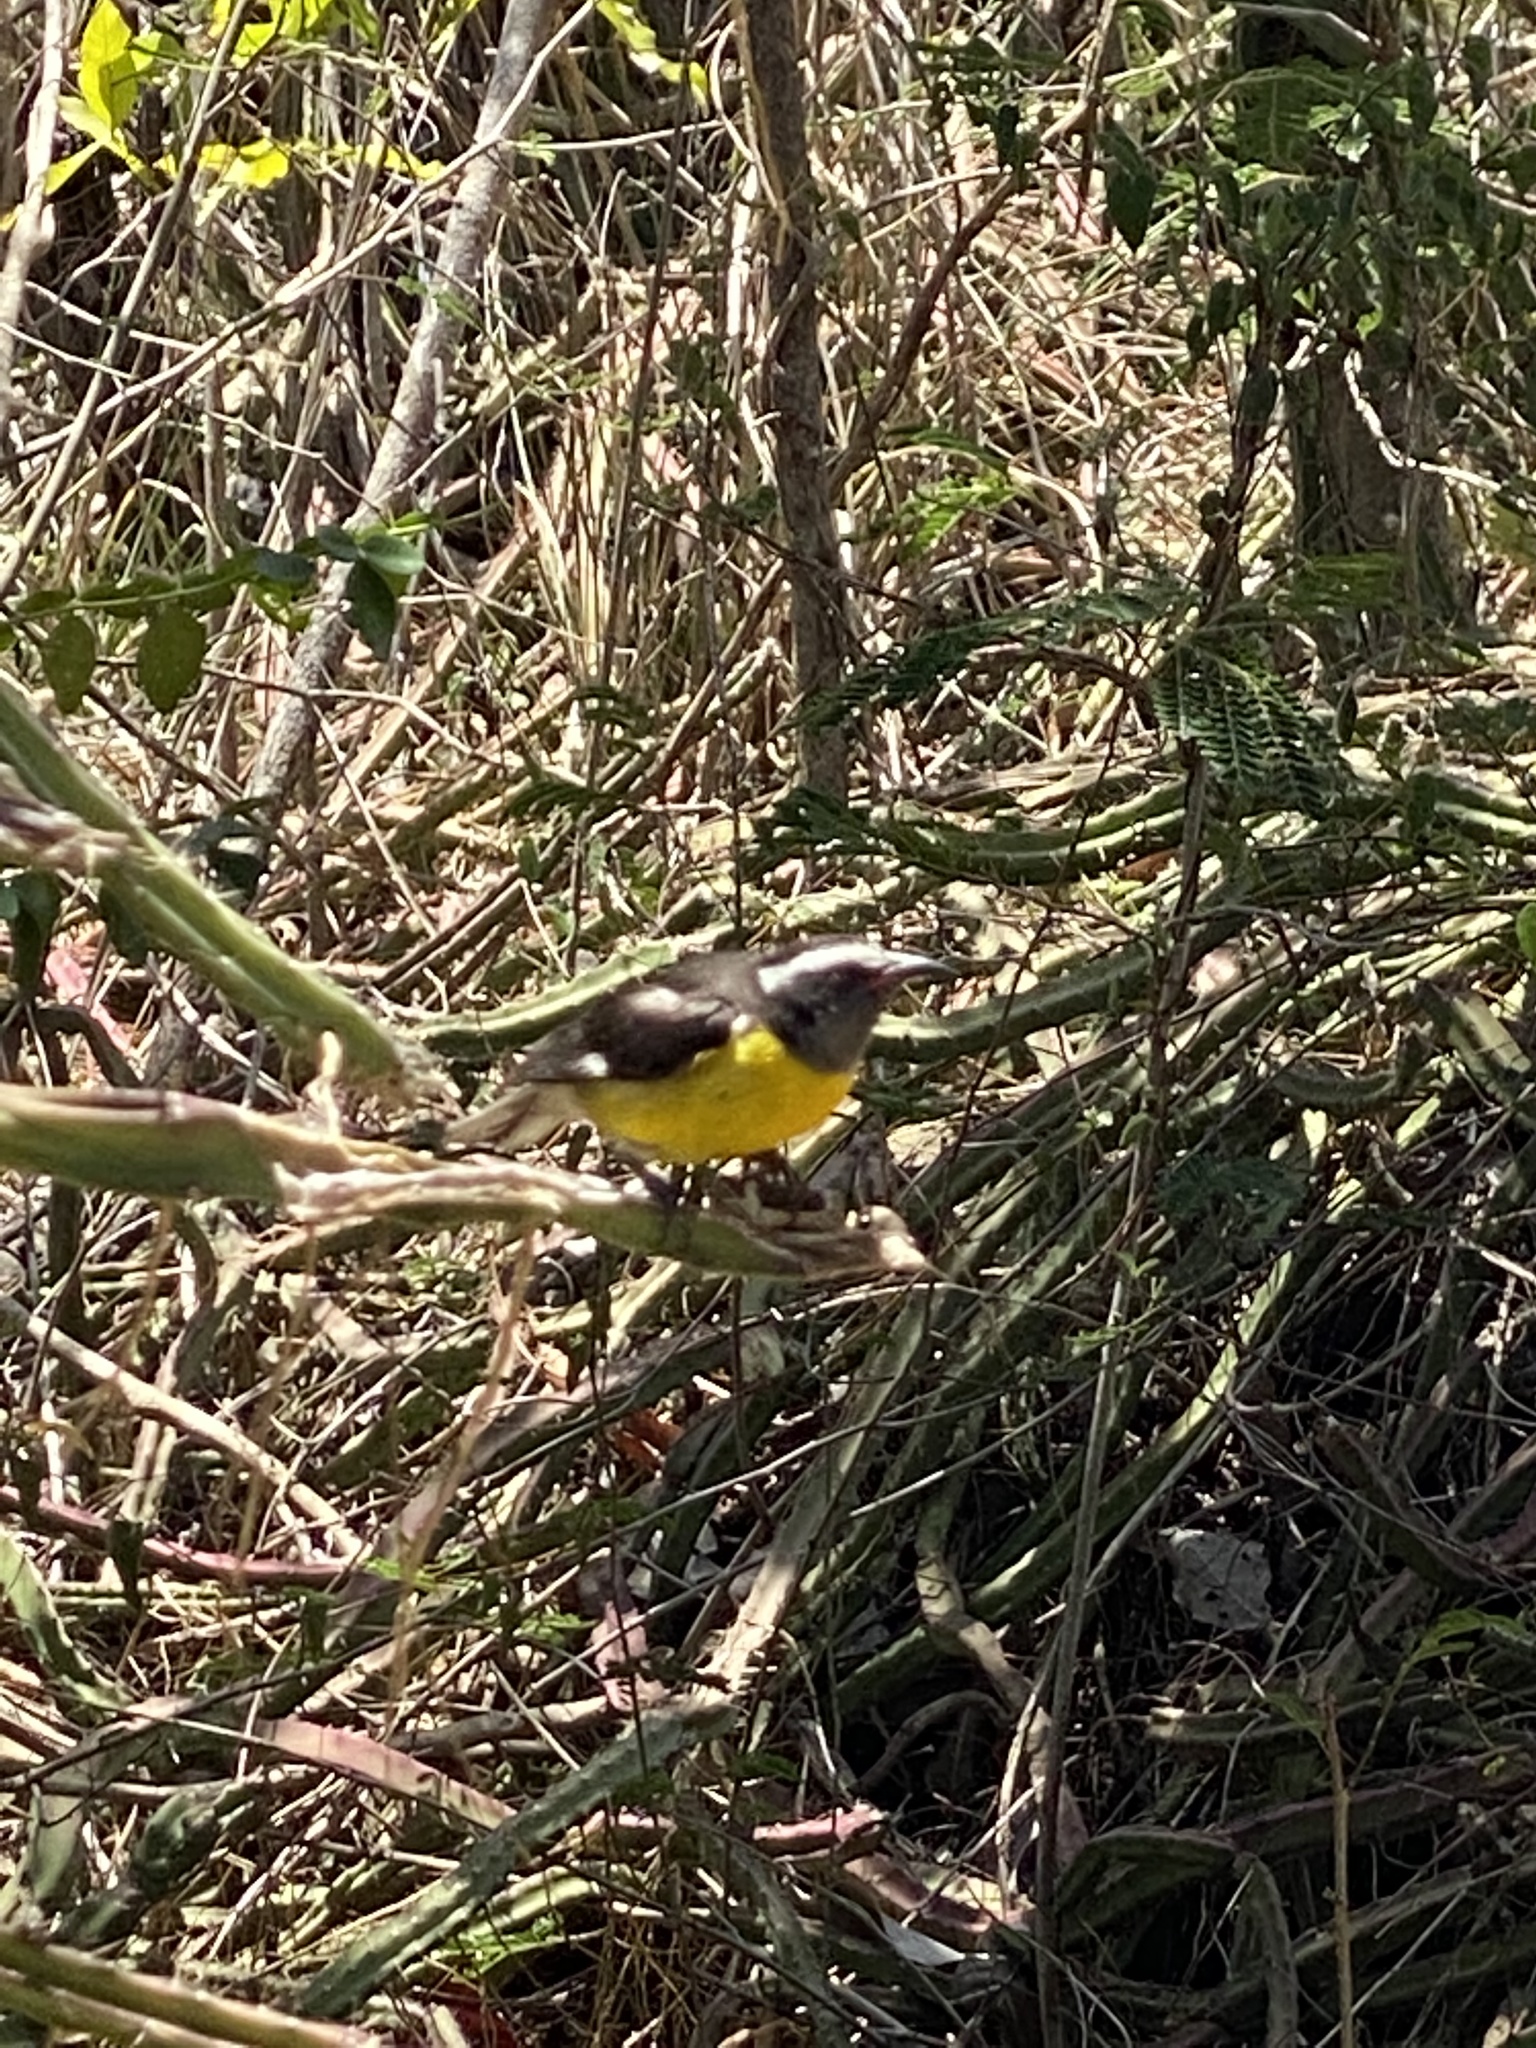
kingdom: Animalia
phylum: Chordata
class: Aves
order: Passeriformes
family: Thraupidae
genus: Coereba
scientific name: Coereba flaveola
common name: Bananaquit
